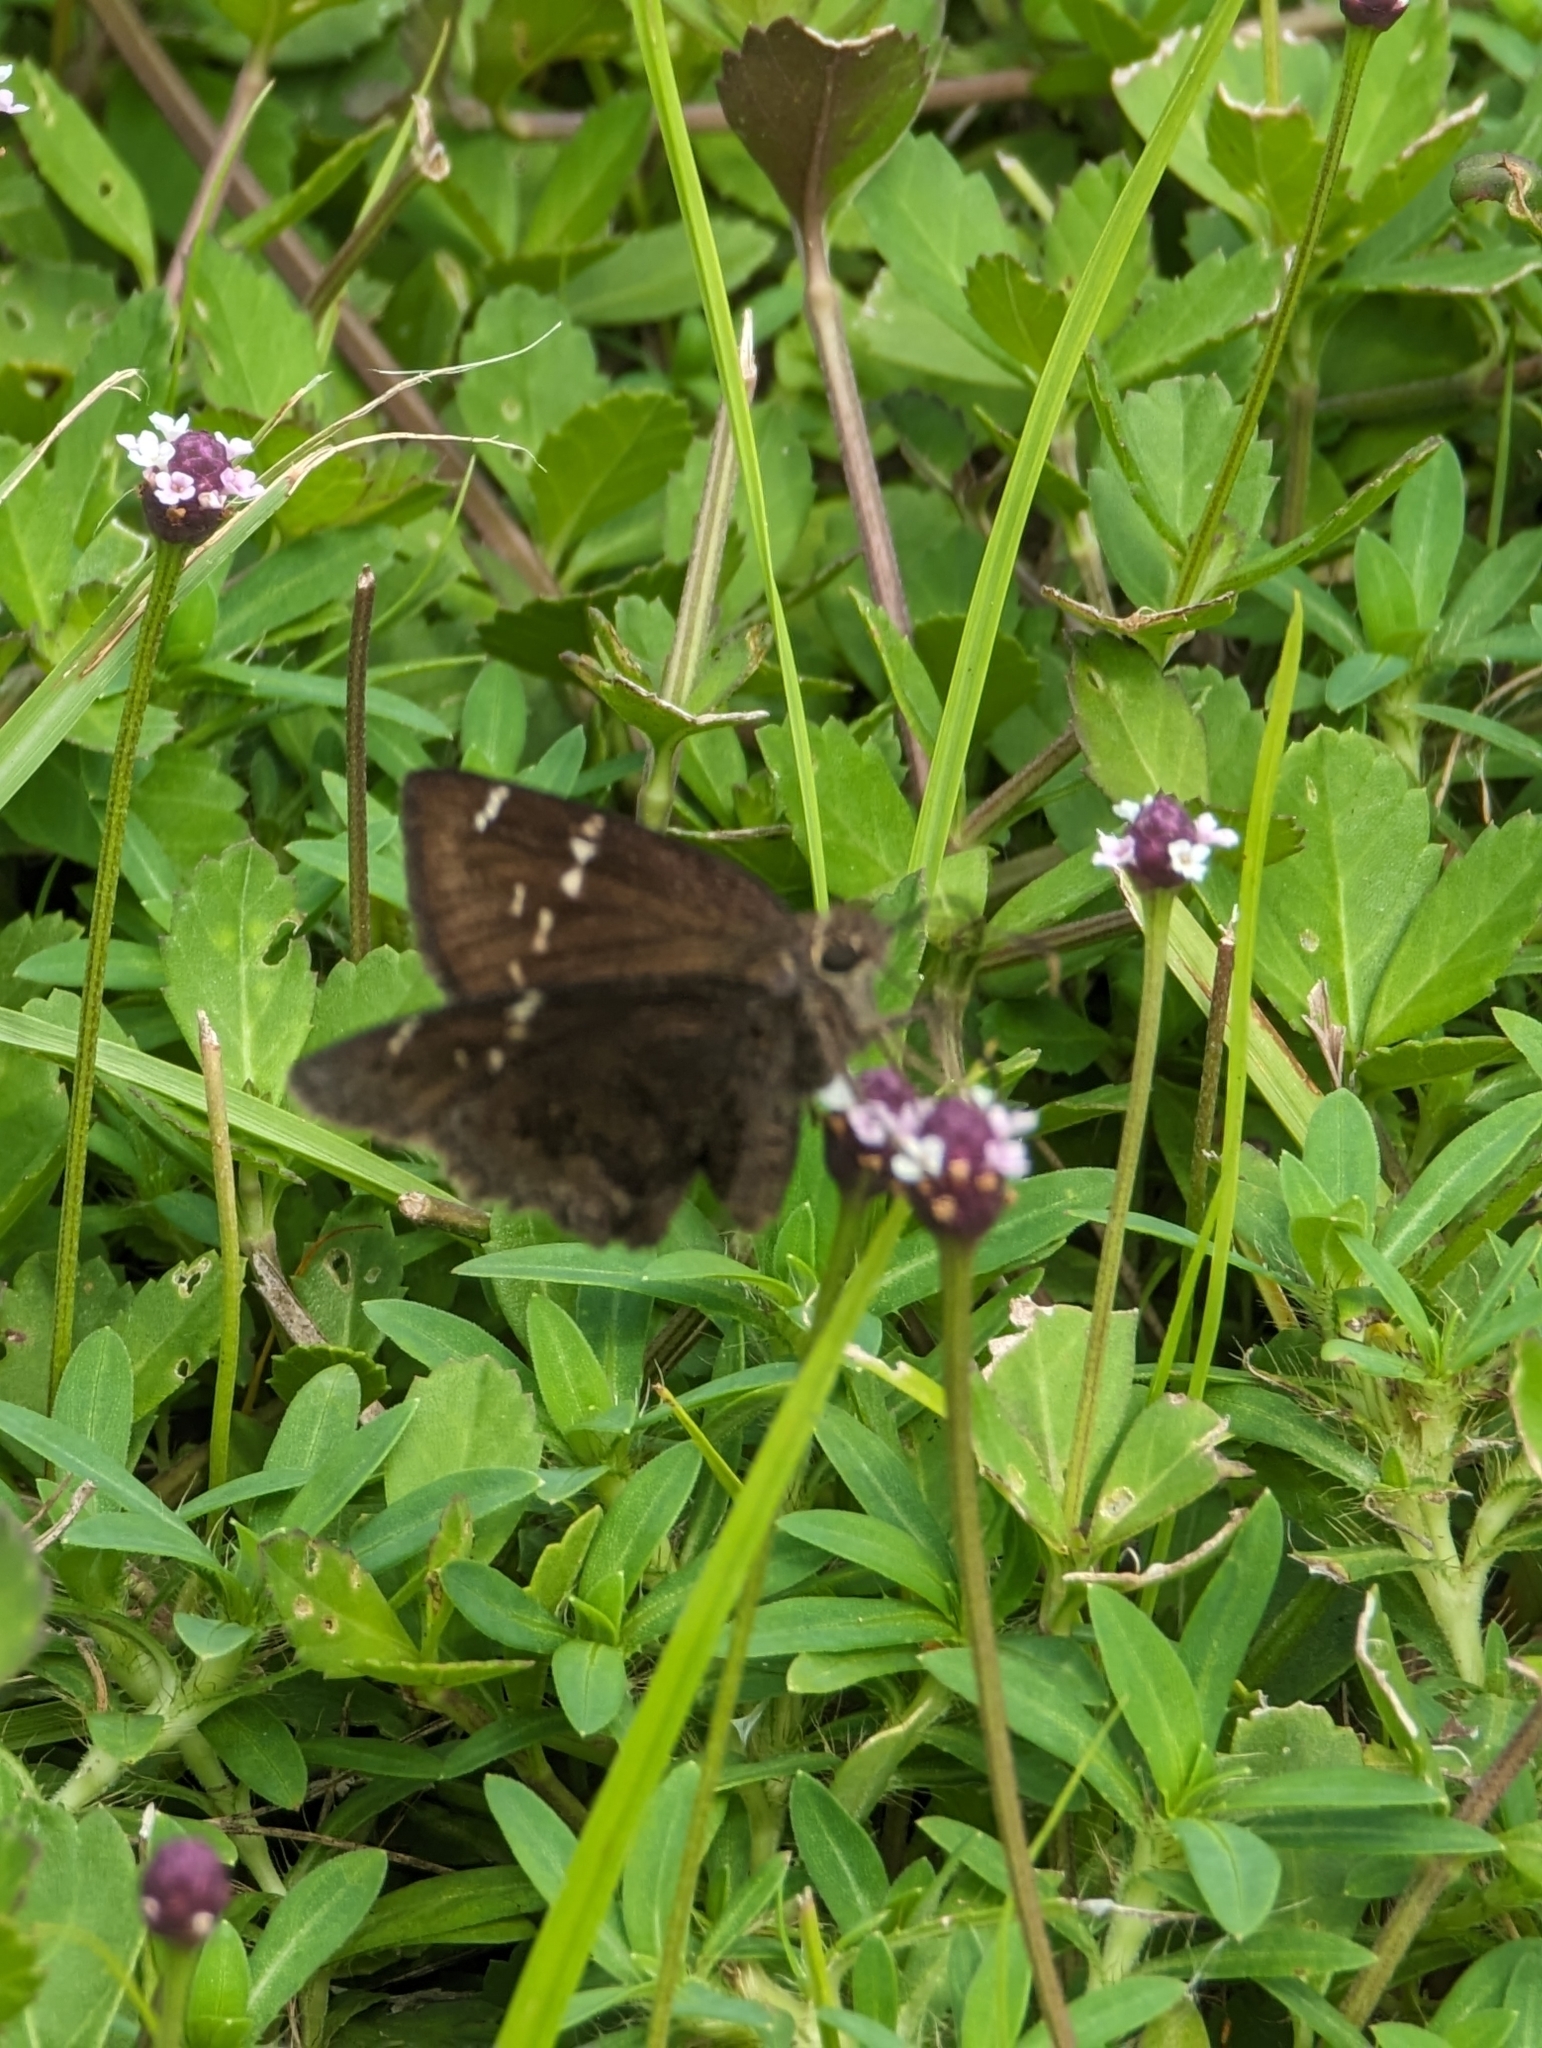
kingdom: Animalia
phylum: Arthropoda
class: Insecta
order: Lepidoptera
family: Hesperiidae
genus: Thorybes
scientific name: Thorybes mexicana
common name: Mexican cloudywing
